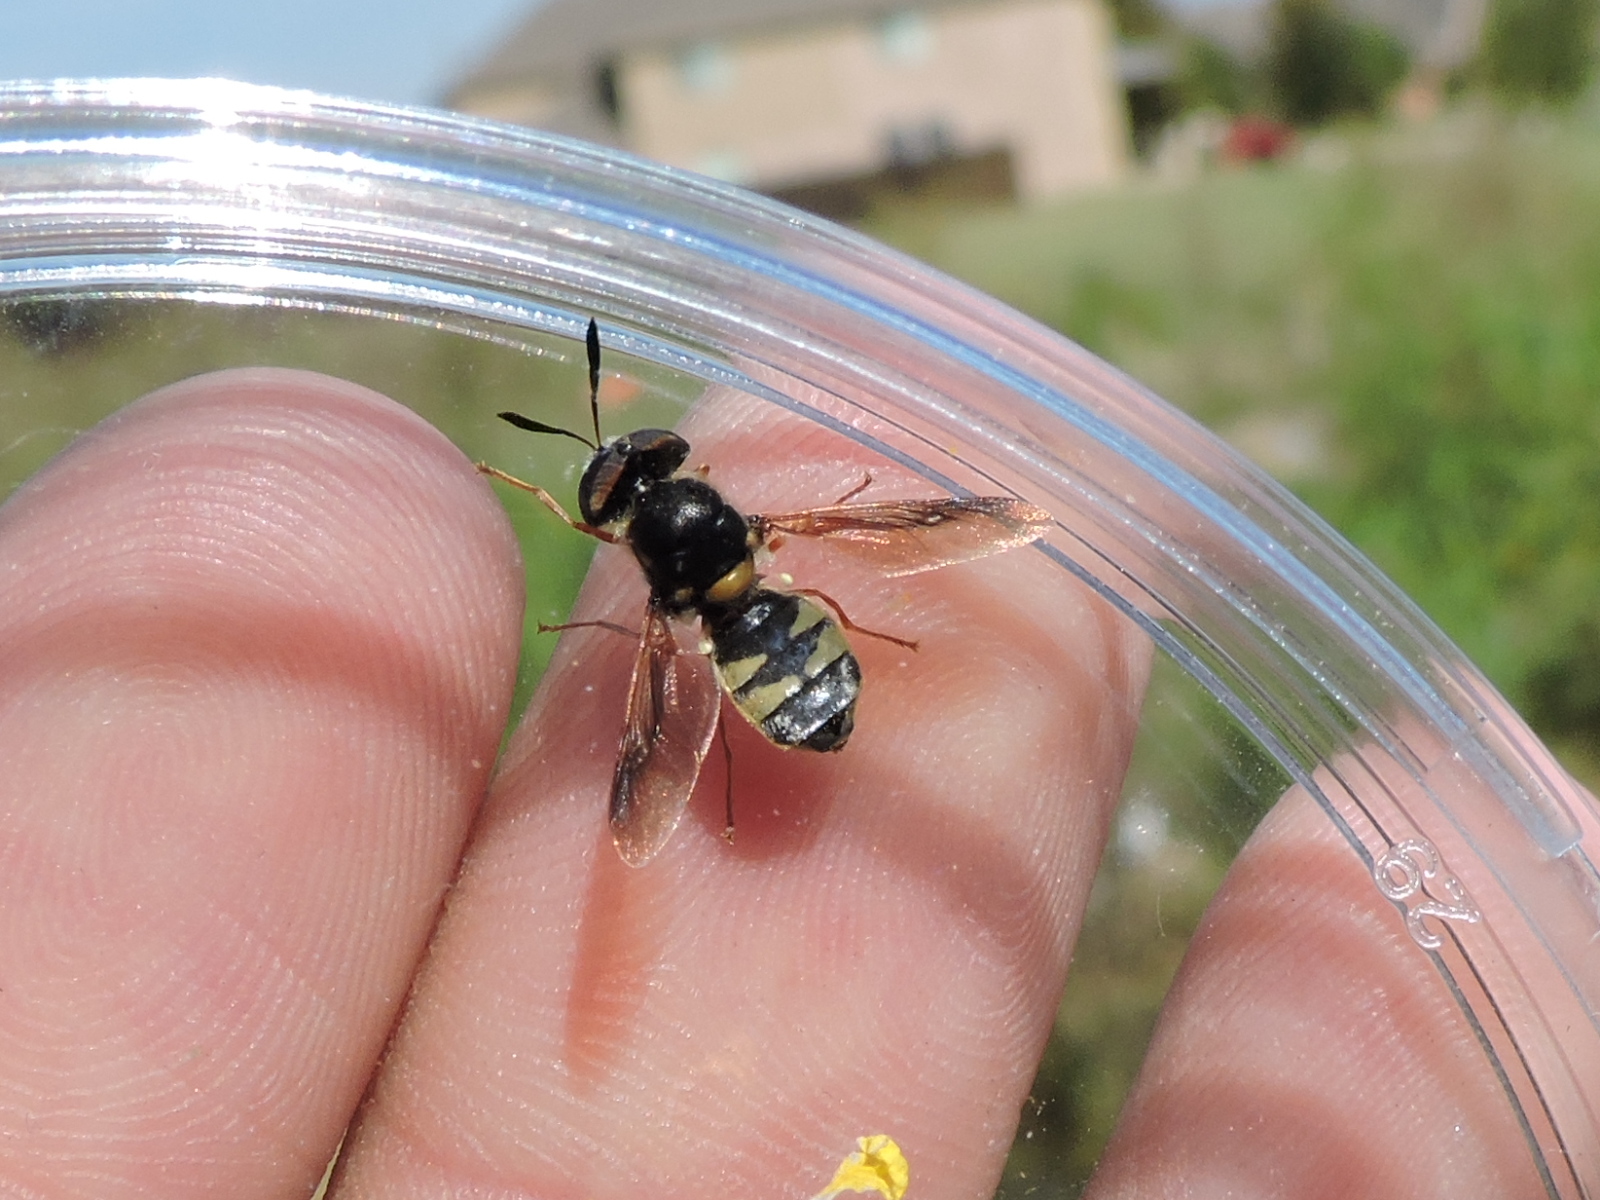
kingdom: Animalia
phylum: Arthropoda
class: Insecta
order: Diptera
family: Stratiomyidae
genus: Hoplitimyia
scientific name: Hoplitimyia constans
